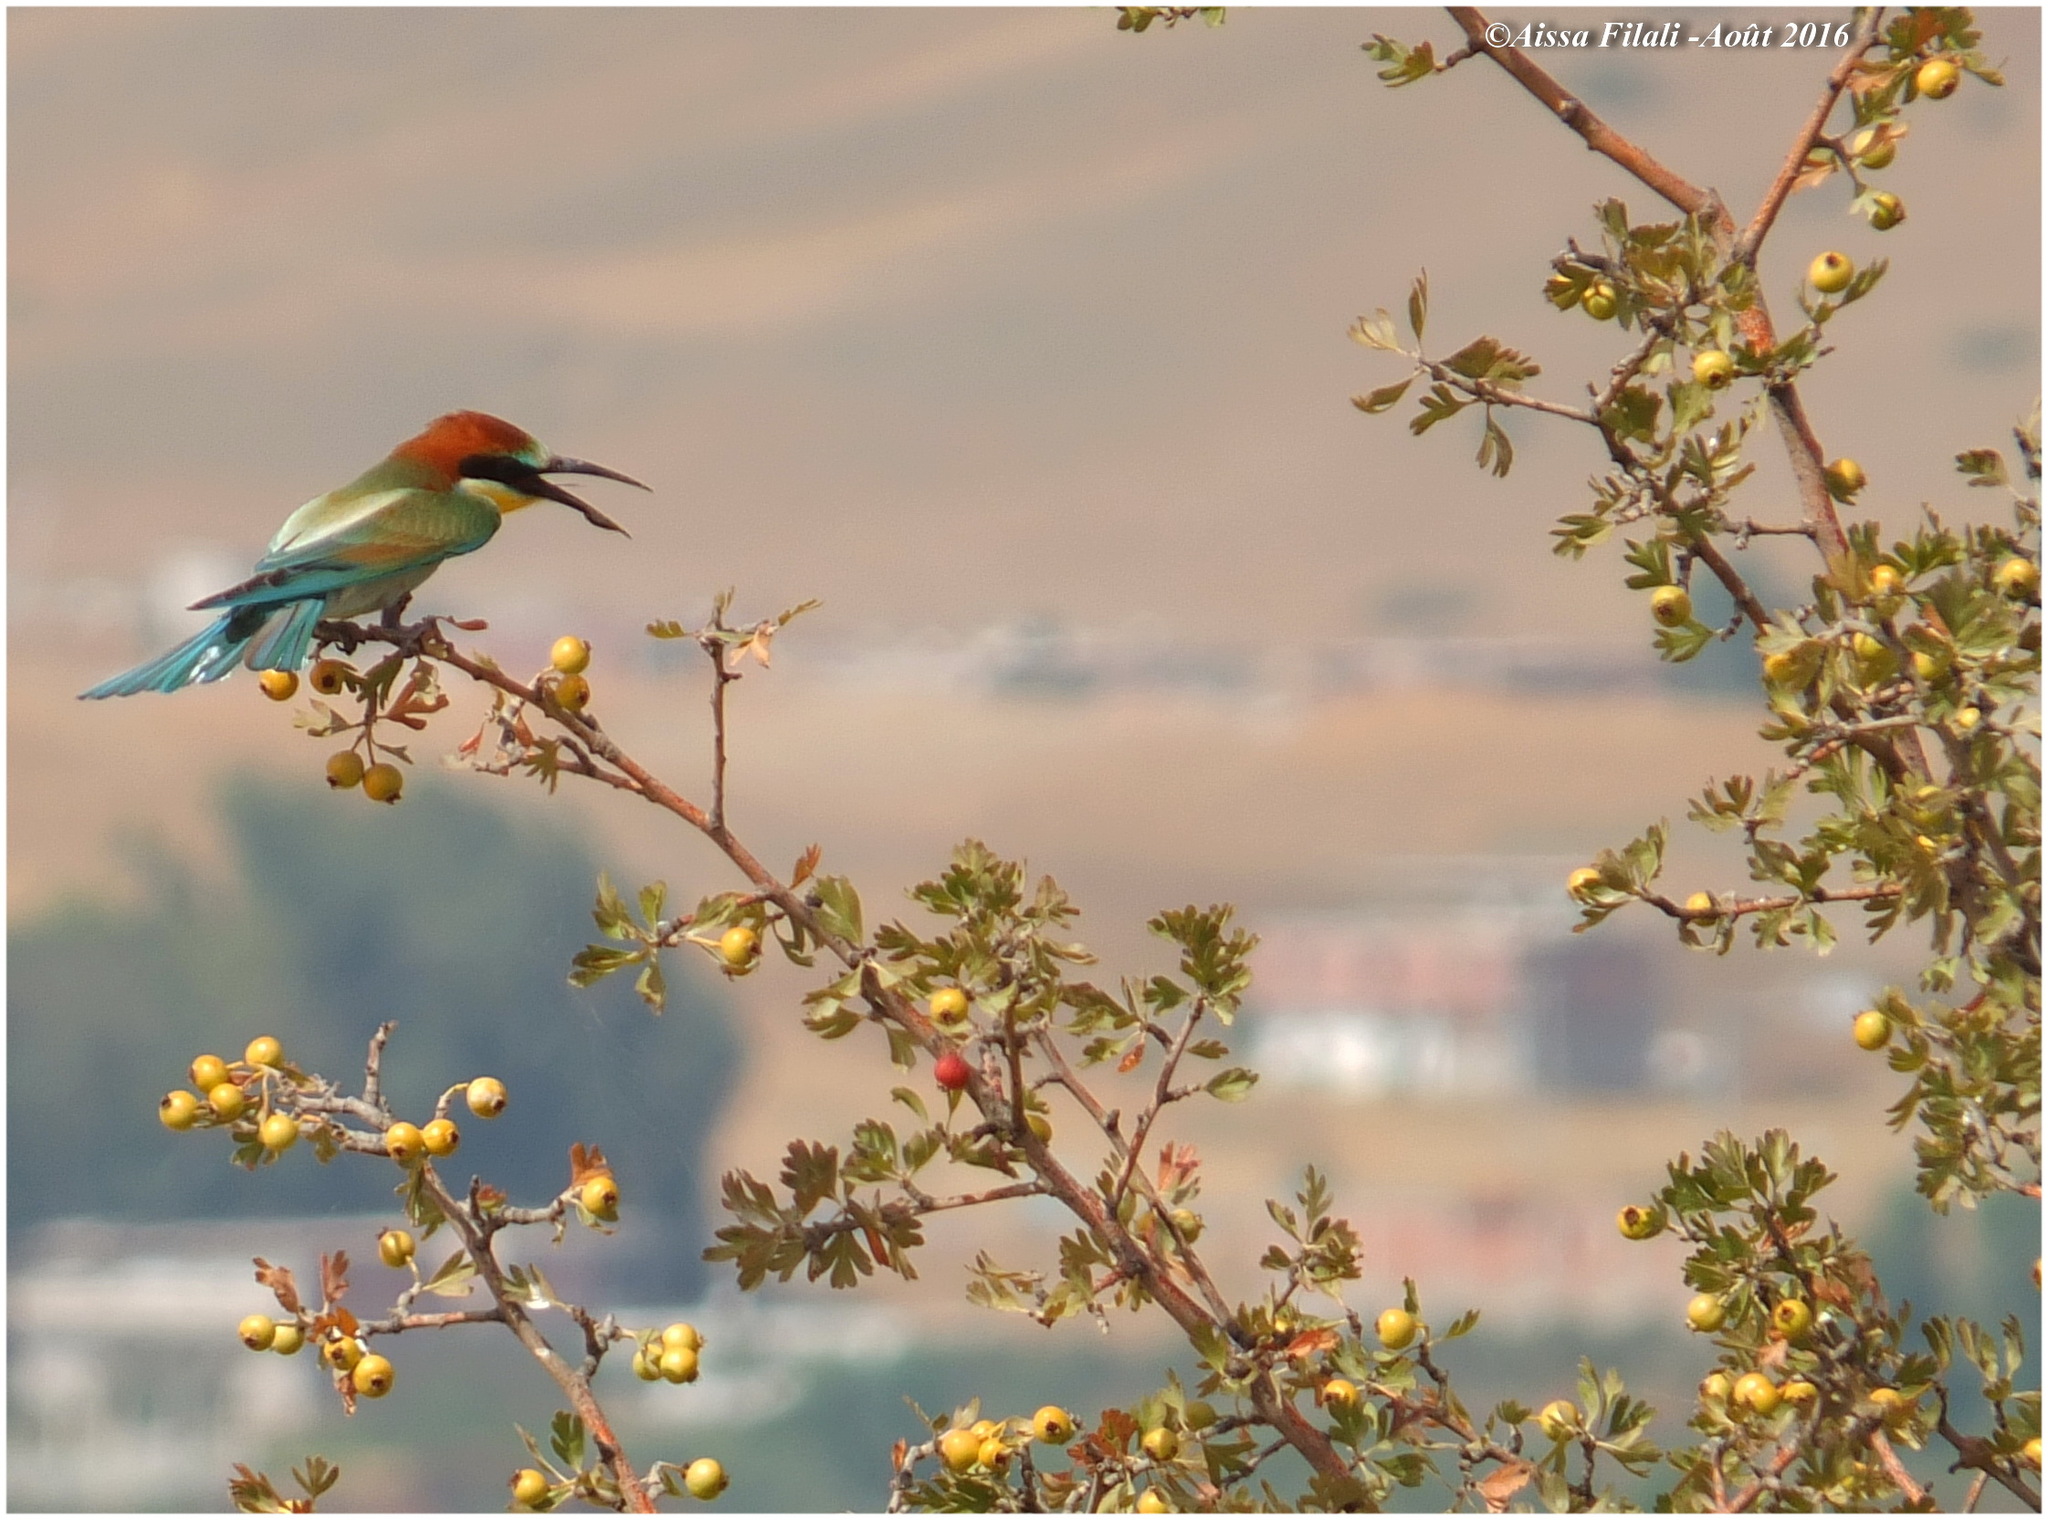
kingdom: Animalia
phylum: Chordata
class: Aves
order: Coraciiformes
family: Meropidae
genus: Merops
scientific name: Merops apiaster
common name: European bee-eater
